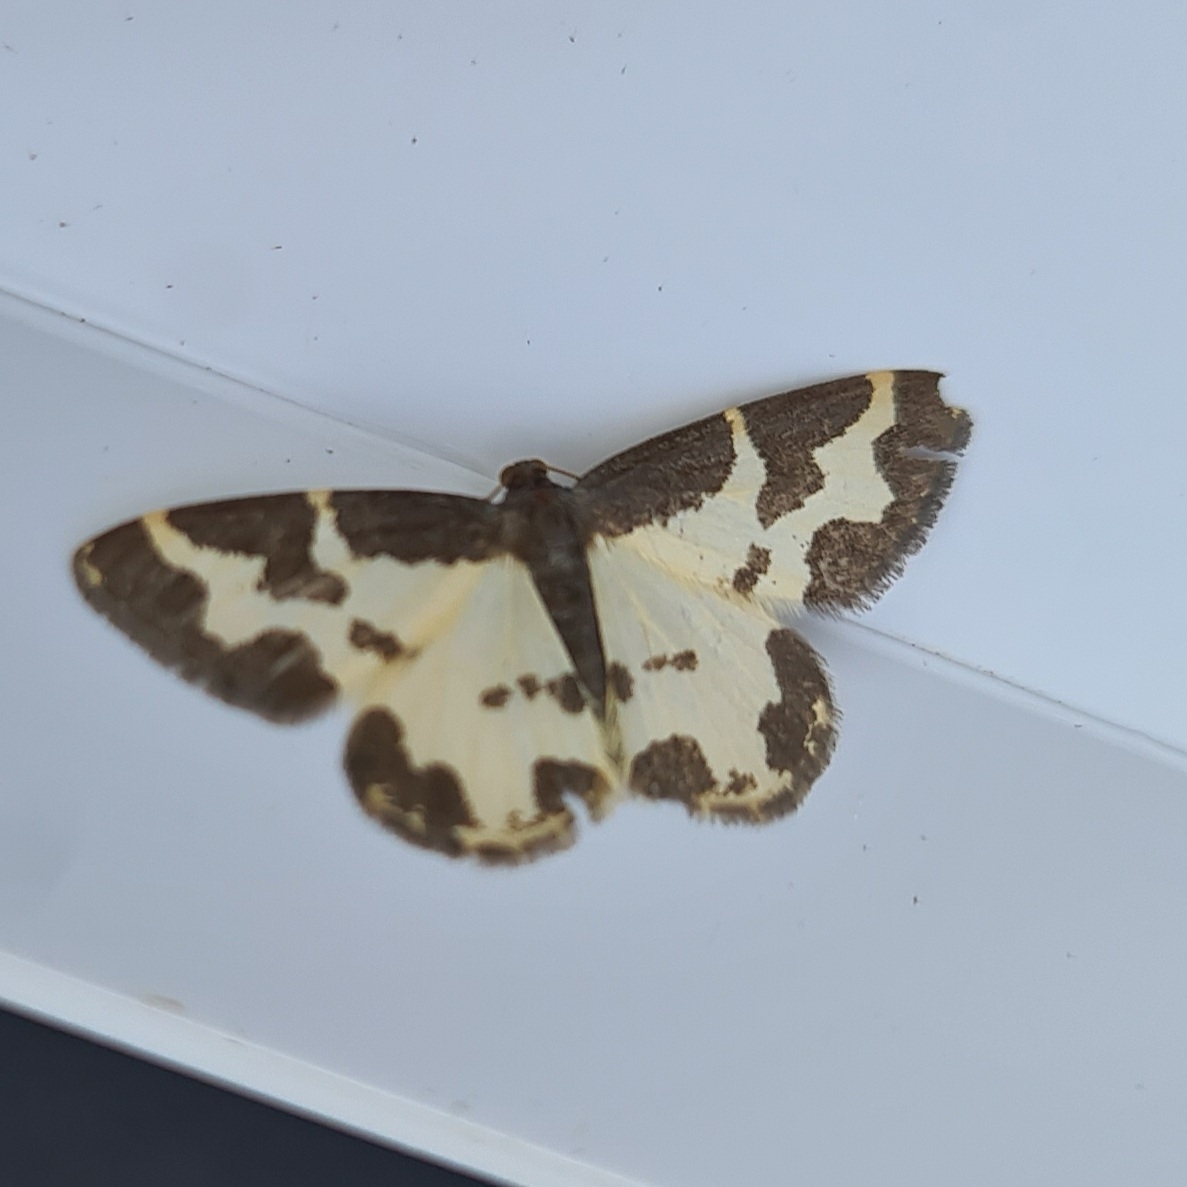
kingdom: Animalia
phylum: Arthropoda
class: Insecta
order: Lepidoptera
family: Geometridae
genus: Lomaspilis
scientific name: Lomaspilis marginata
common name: Clouded border
